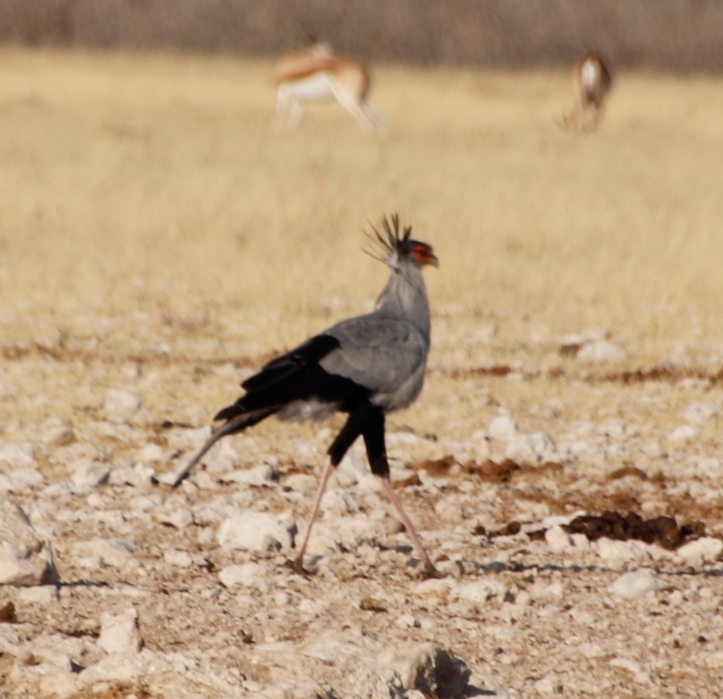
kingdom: Animalia
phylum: Chordata
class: Aves
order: Accipitriformes
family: Sagittariidae
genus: Sagittarius
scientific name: Sagittarius serpentarius
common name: Secretarybird
